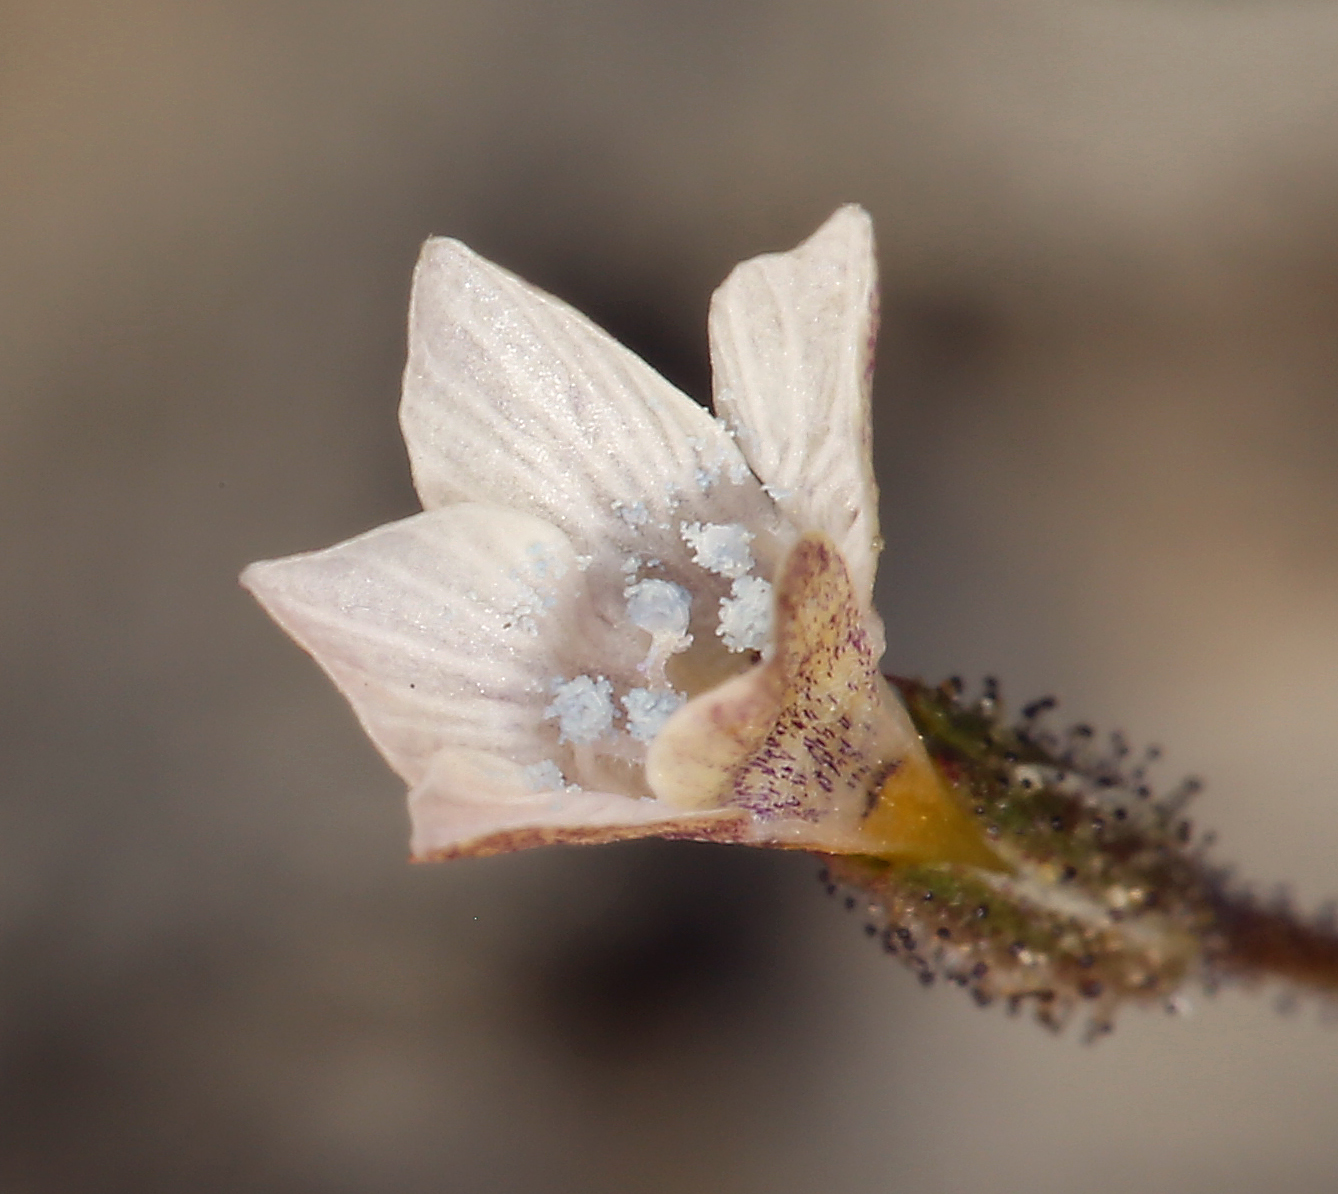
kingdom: Plantae
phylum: Tracheophyta
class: Magnoliopsida
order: Ericales
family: Polemoniaceae
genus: Gilia
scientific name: Gilia stellata
